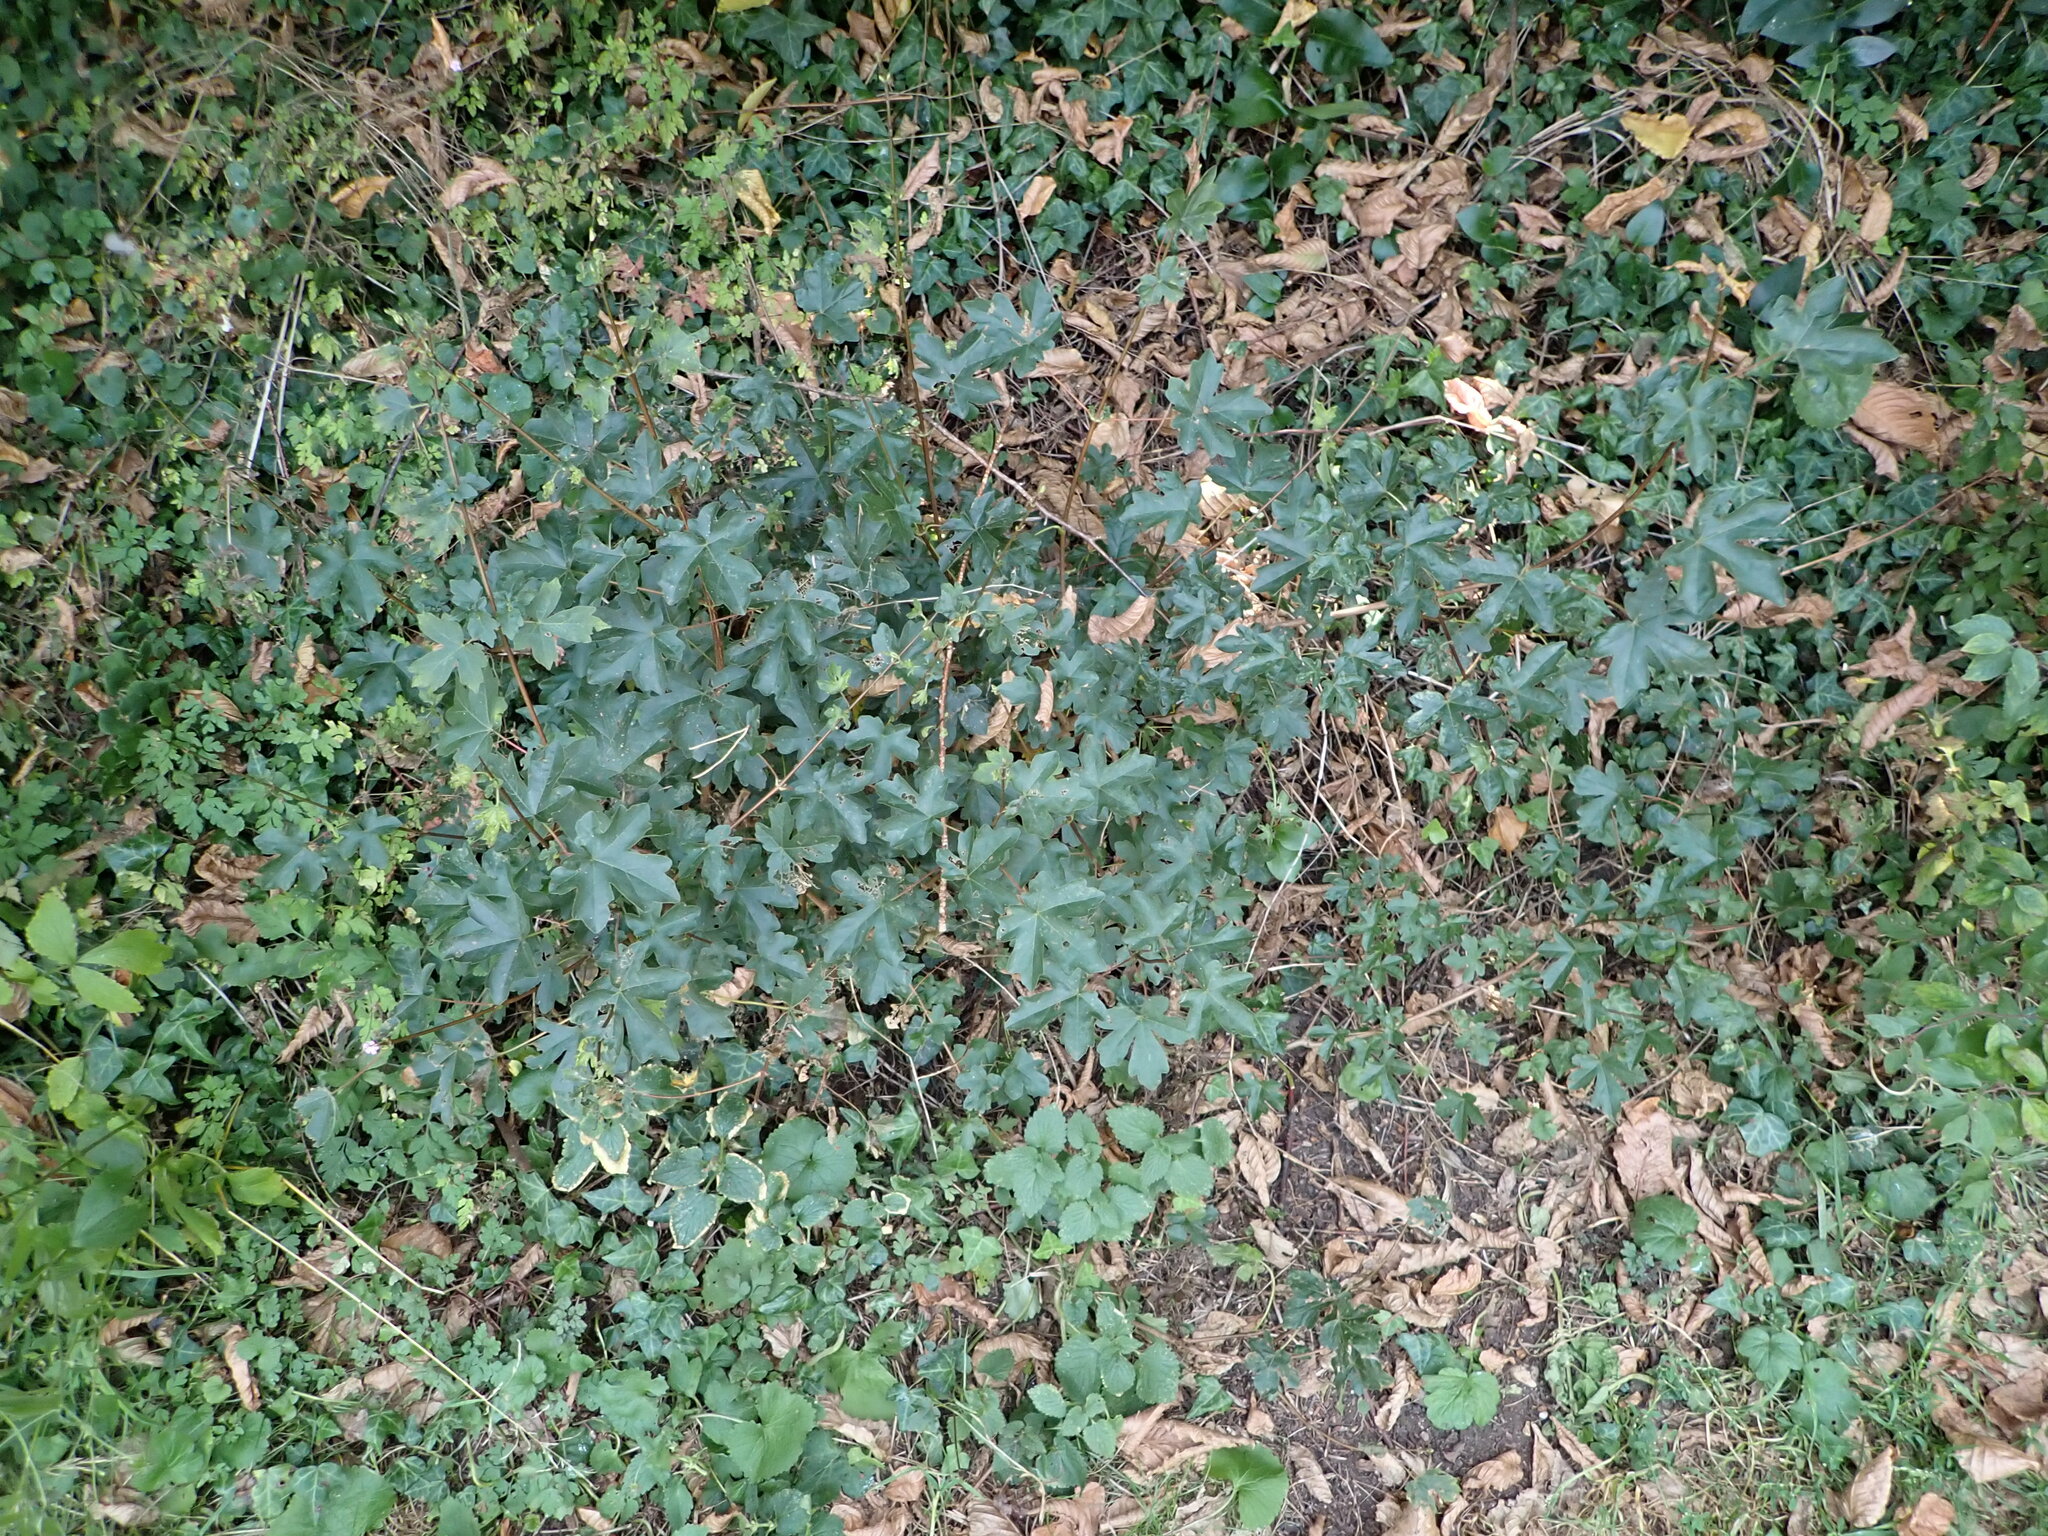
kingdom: Plantae
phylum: Tracheophyta
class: Magnoliopsida
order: Sapindales
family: Sapindaceae
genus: Acer
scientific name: Acer campestre
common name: Field maple
